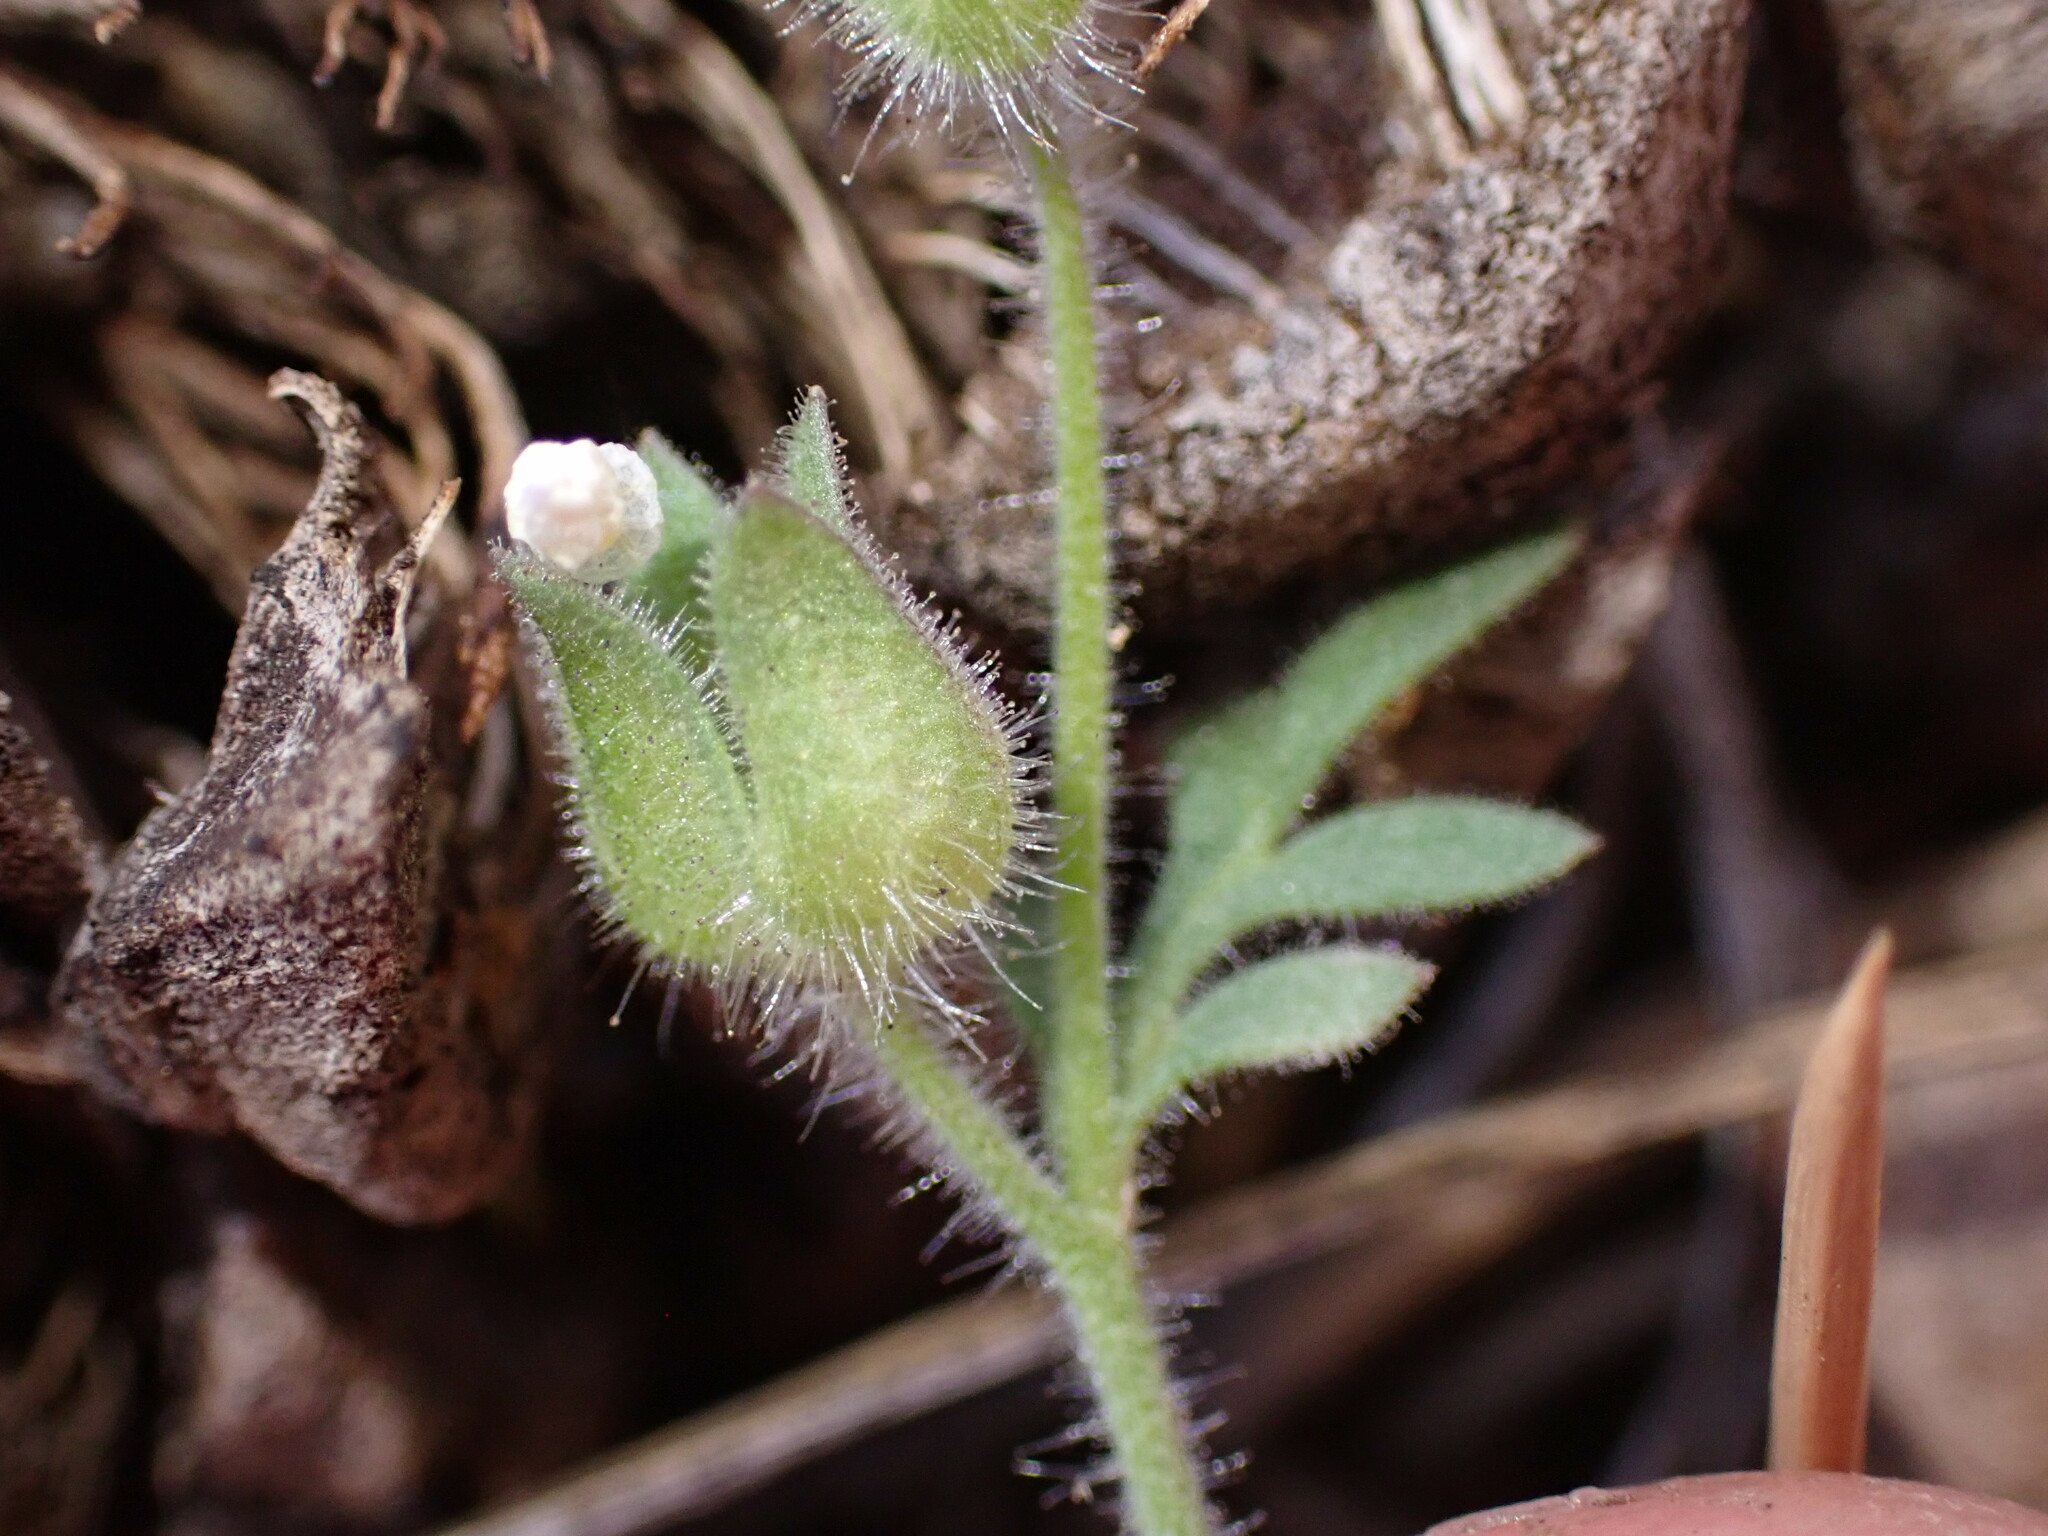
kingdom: Plantae
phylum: Tracheophyta
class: Magnoliopsida
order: Ericales
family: Polemoniaceae
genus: Polemonium
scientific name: Polemonium micranthum
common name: Annual jacob's-ladder
